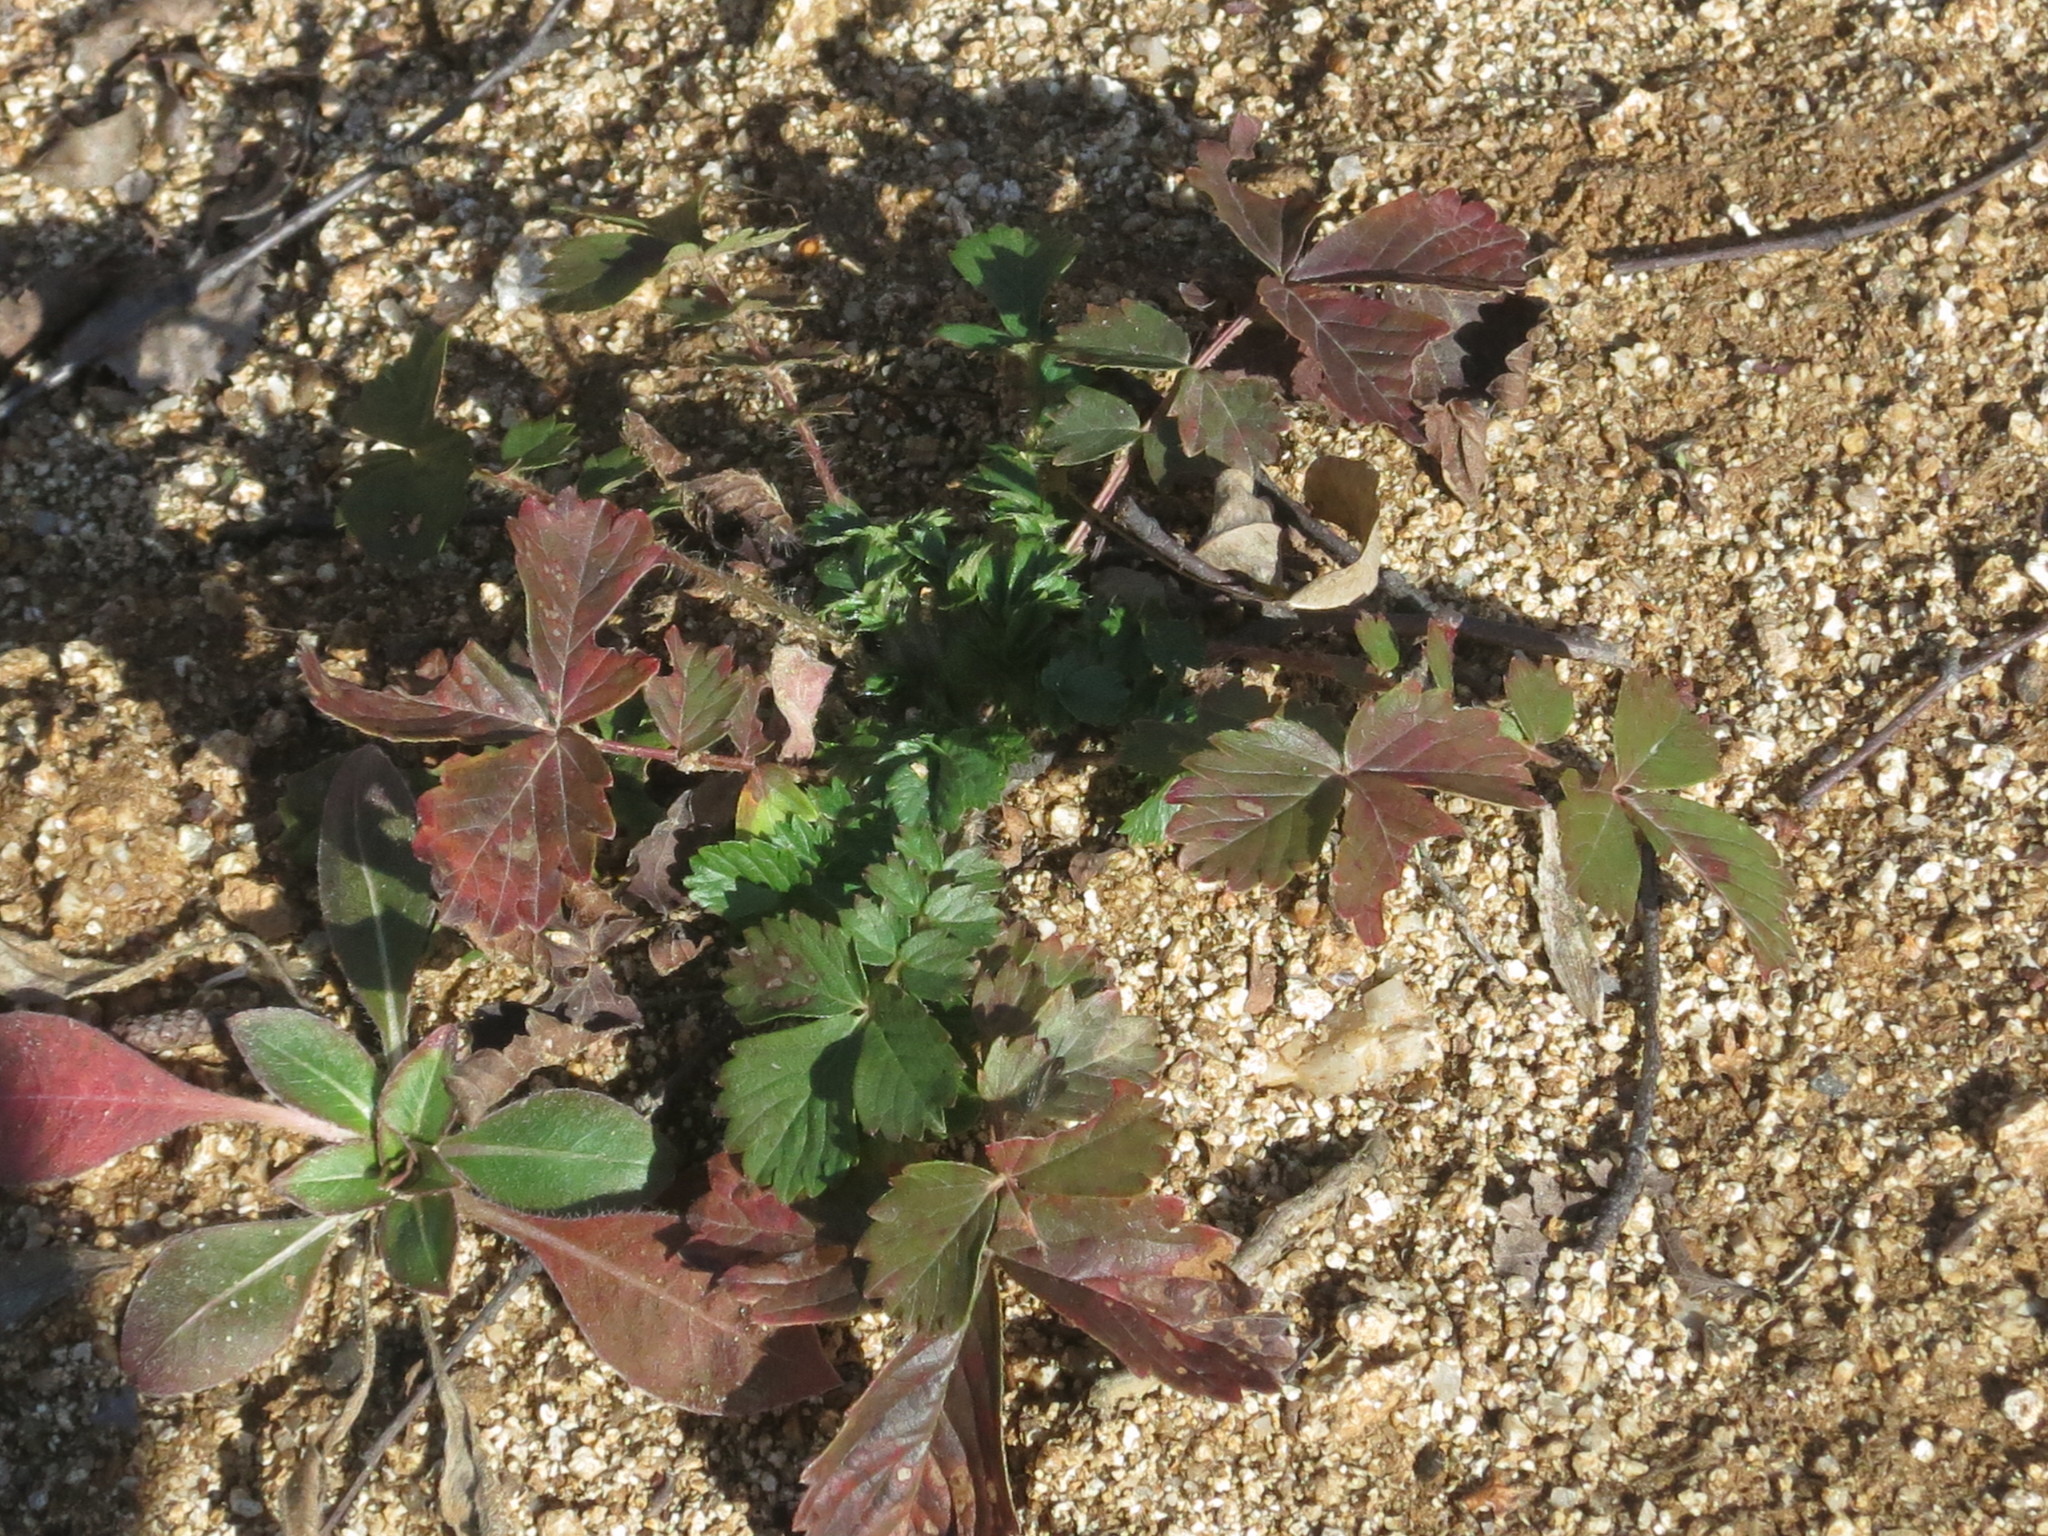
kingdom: Plantae
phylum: Tracheophyta
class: Magnoliopsida
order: Rosales
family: Rosaceae
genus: Potentilla
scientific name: Potentilla fragarioides
